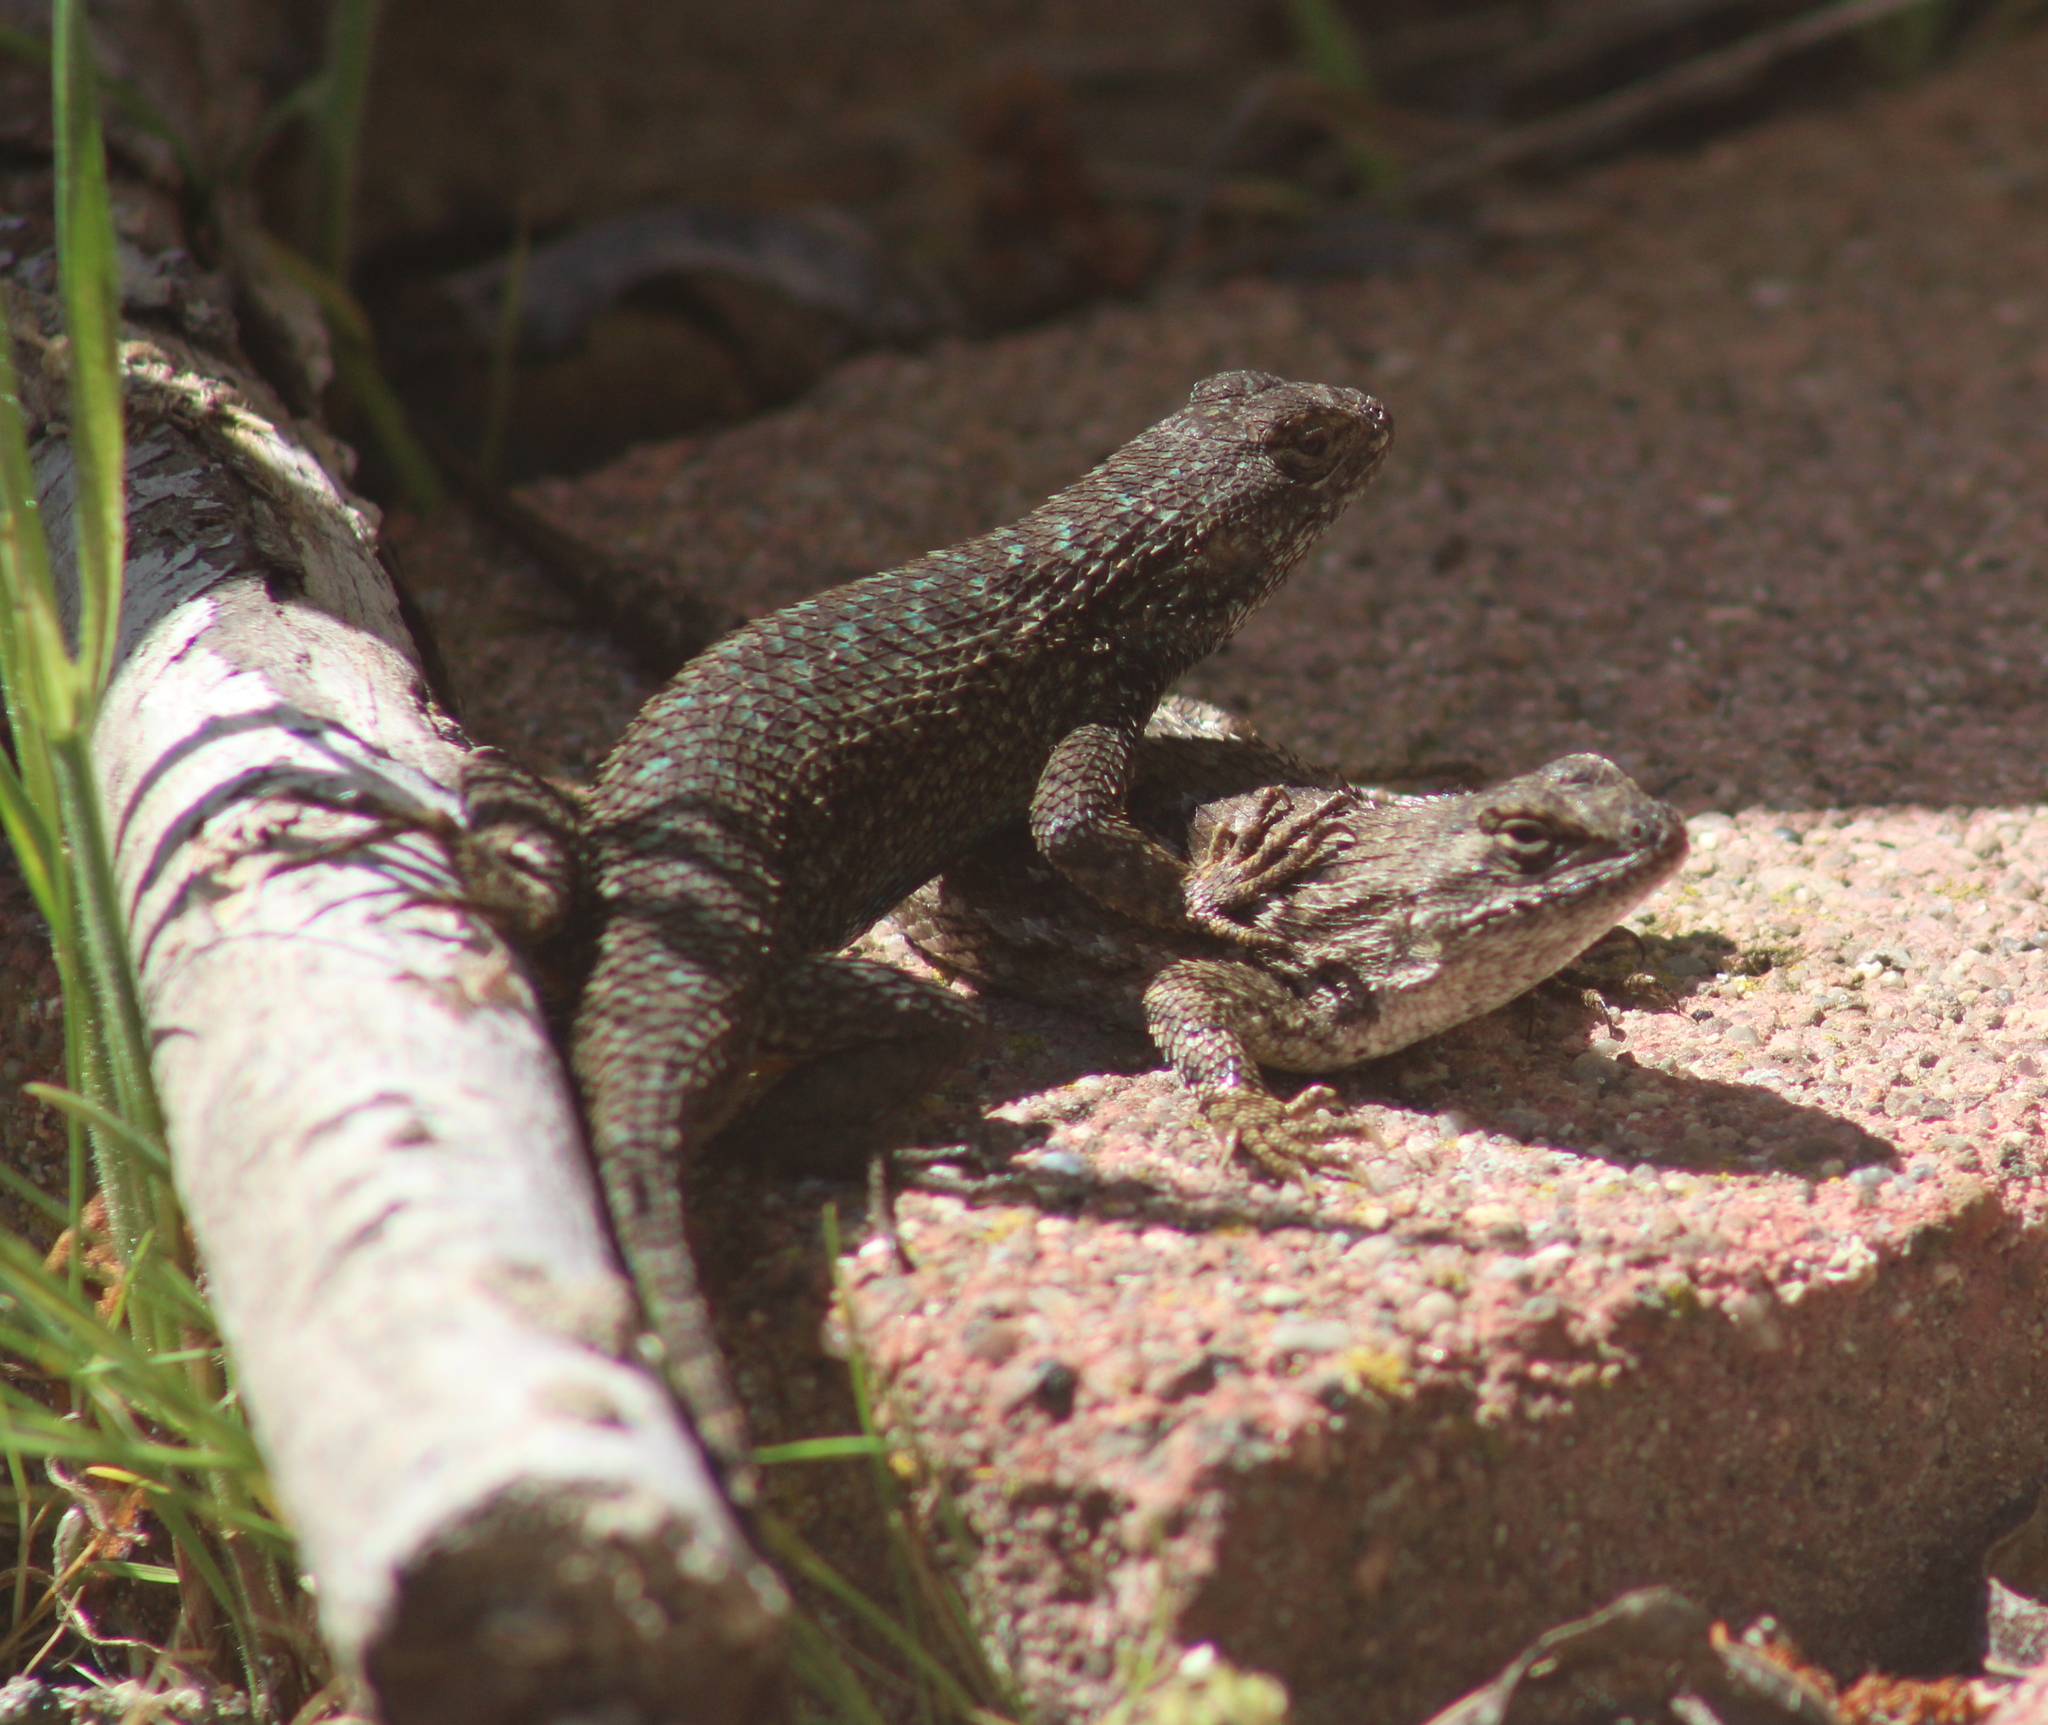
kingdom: Animalia
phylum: Chordata
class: Squamata
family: Phrynosomatidae
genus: Sceloporus
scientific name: Sceloporus occidentalis
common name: Western fence lizard
